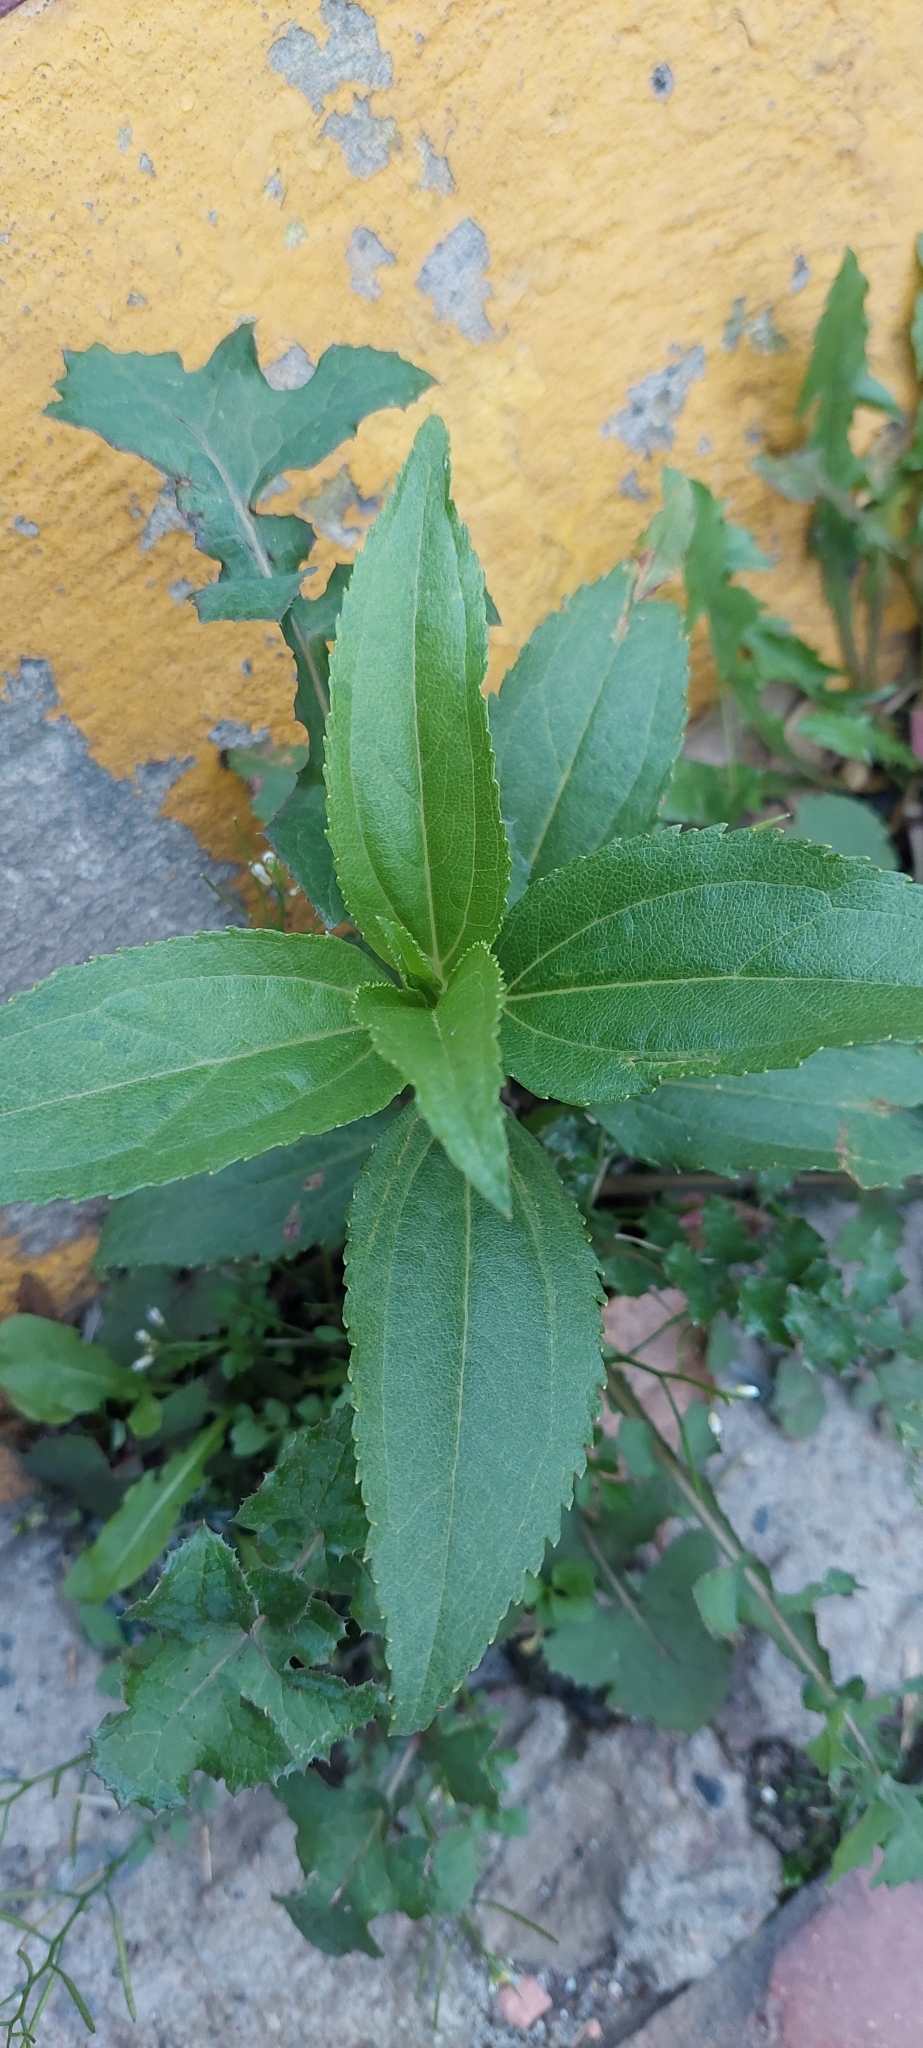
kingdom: Plantae
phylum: Tracheophyta
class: Magnoliopsida
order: Asterales
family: Asteraceae
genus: Baccharis
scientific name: Baccharis latifolia
